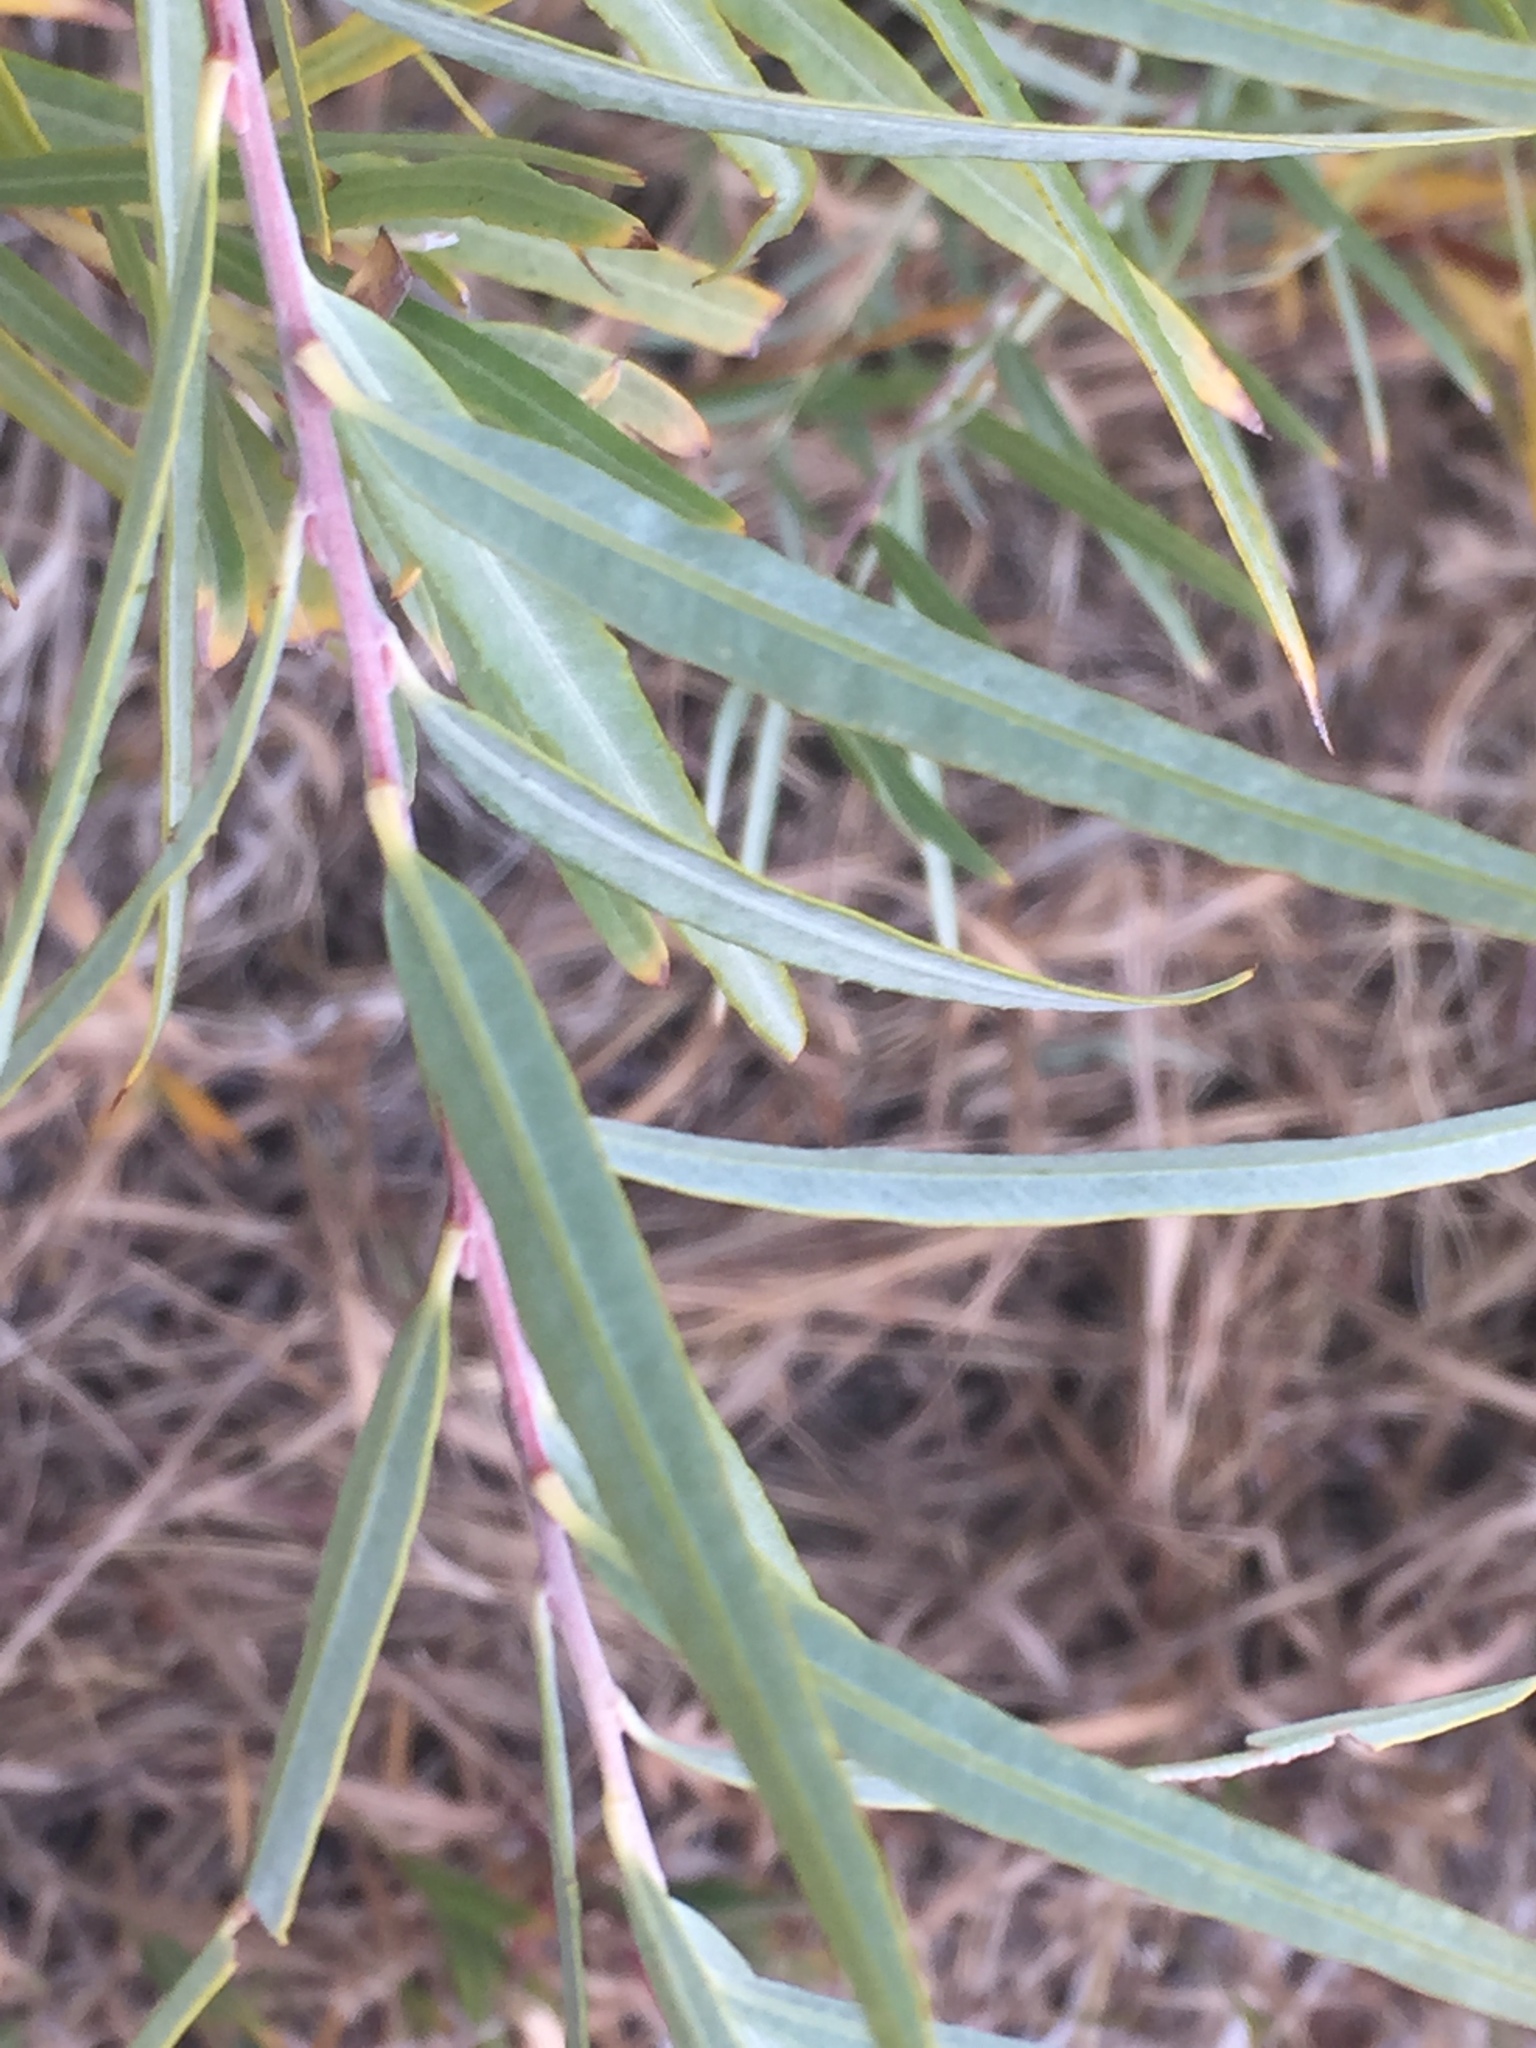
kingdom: Plantae
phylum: Tracheophyta
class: Magnoliopsida
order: Malpighiales
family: Salicaceae
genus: Salix
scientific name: Salix exigua
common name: Coyote willow
